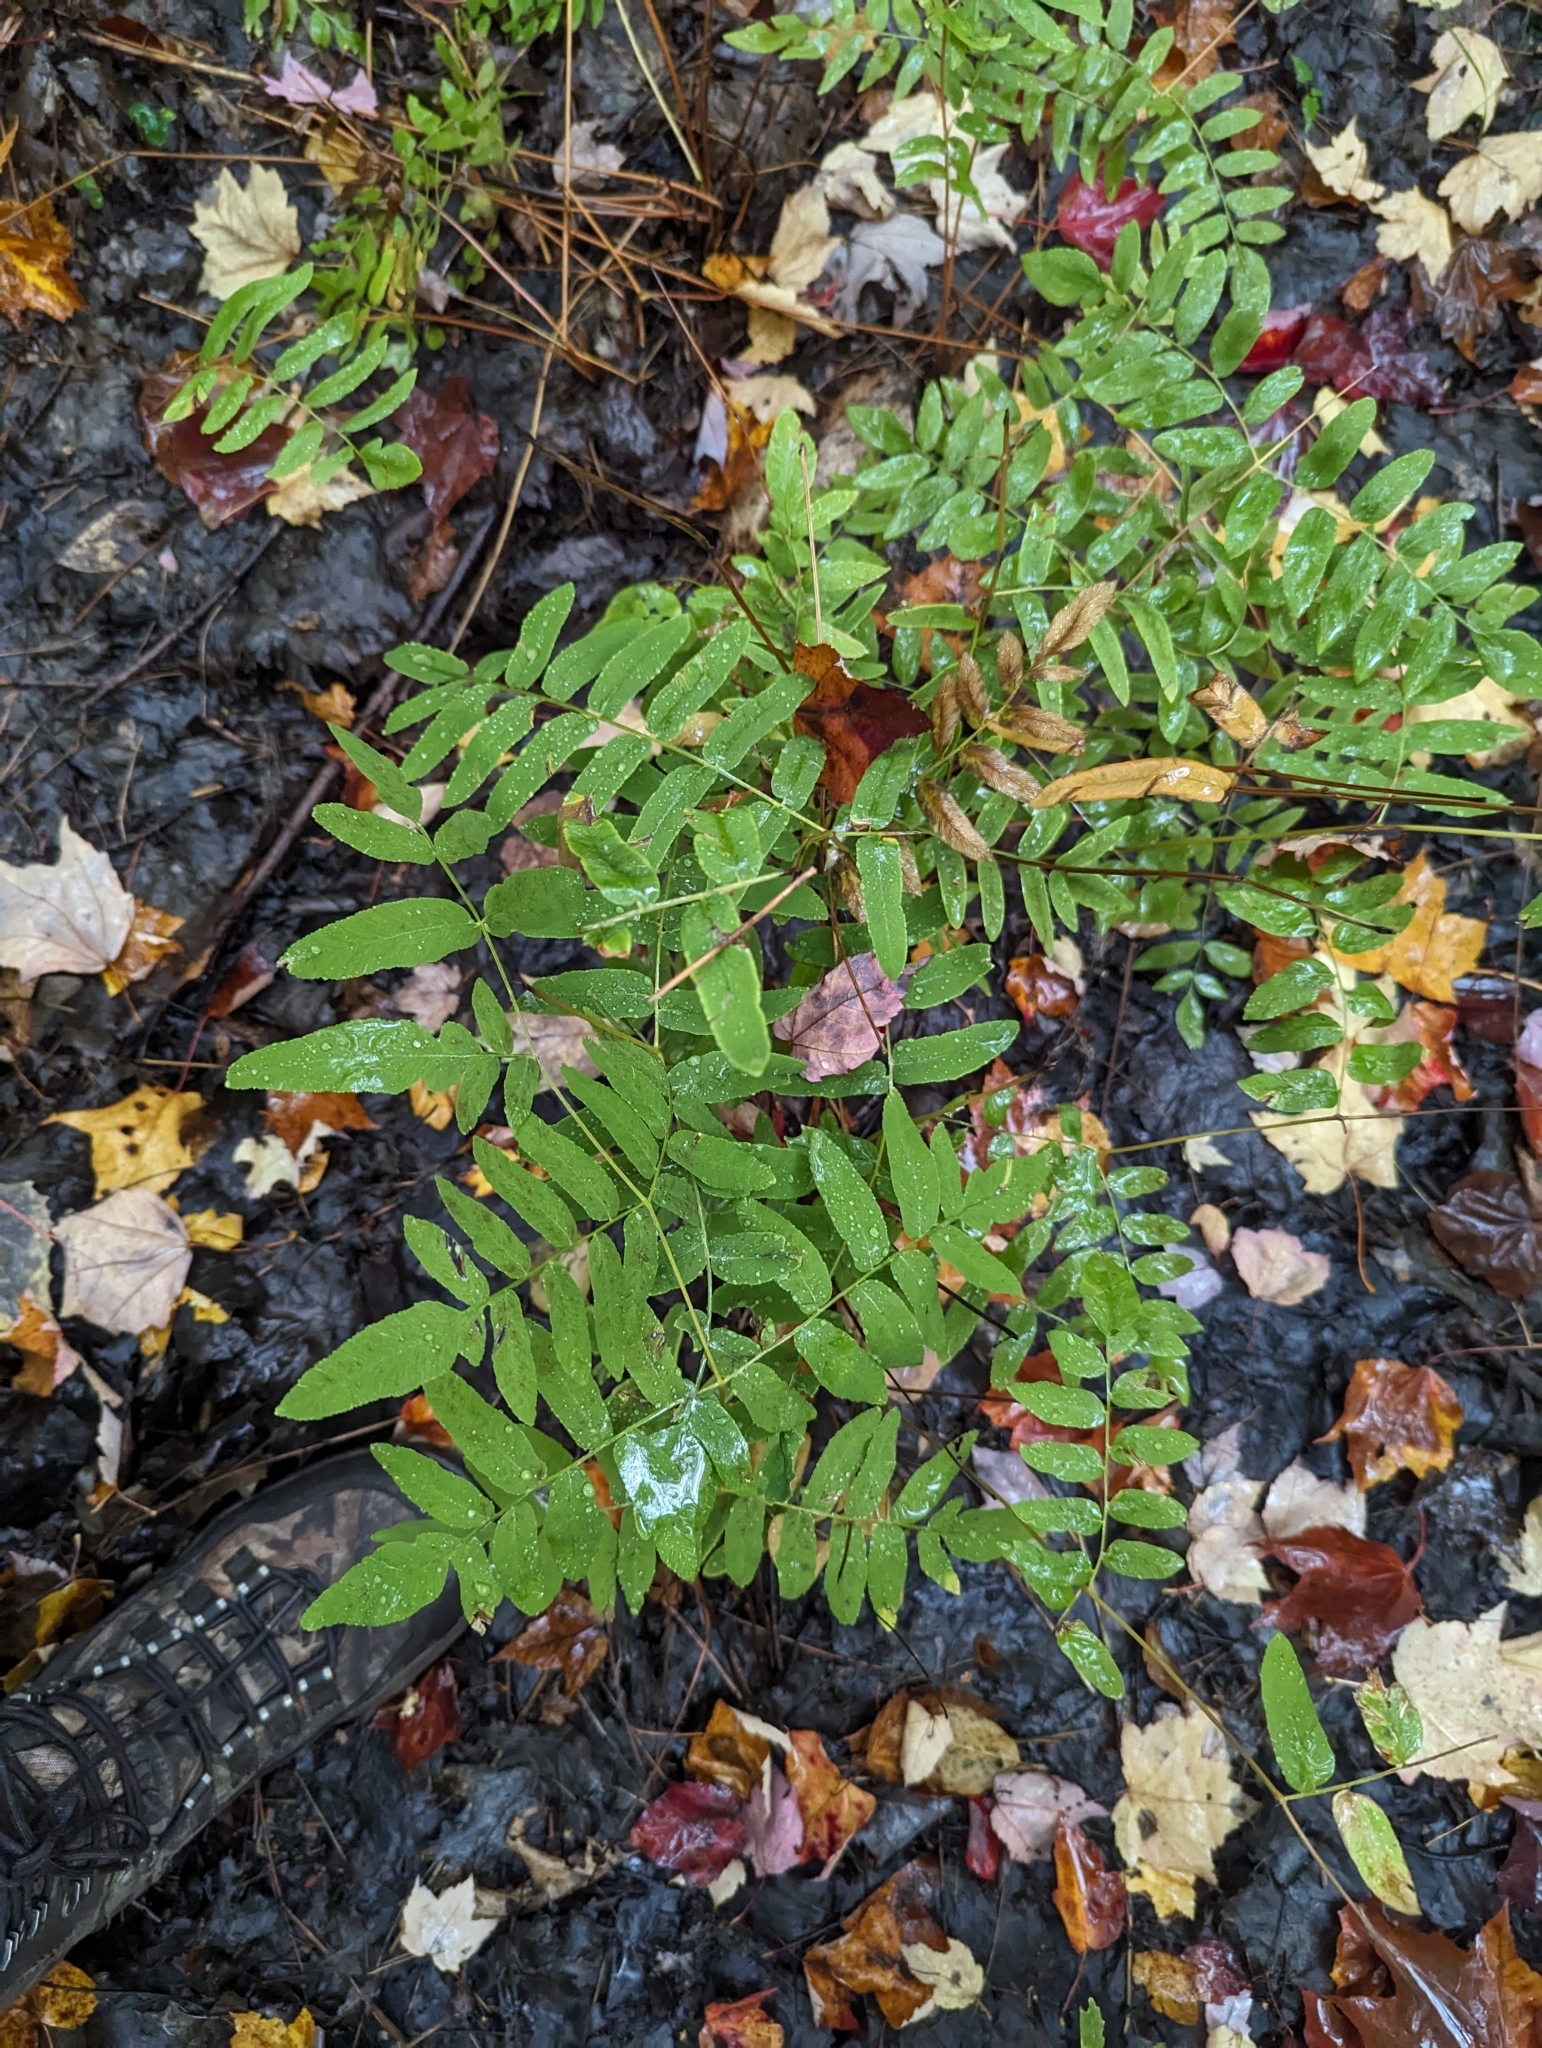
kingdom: Plantae
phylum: Tracheophyta
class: Polypodiopsida
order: Osmundales
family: Osmundaceae
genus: Osmunda
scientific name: Osmunda spectabilis
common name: American royal fern
